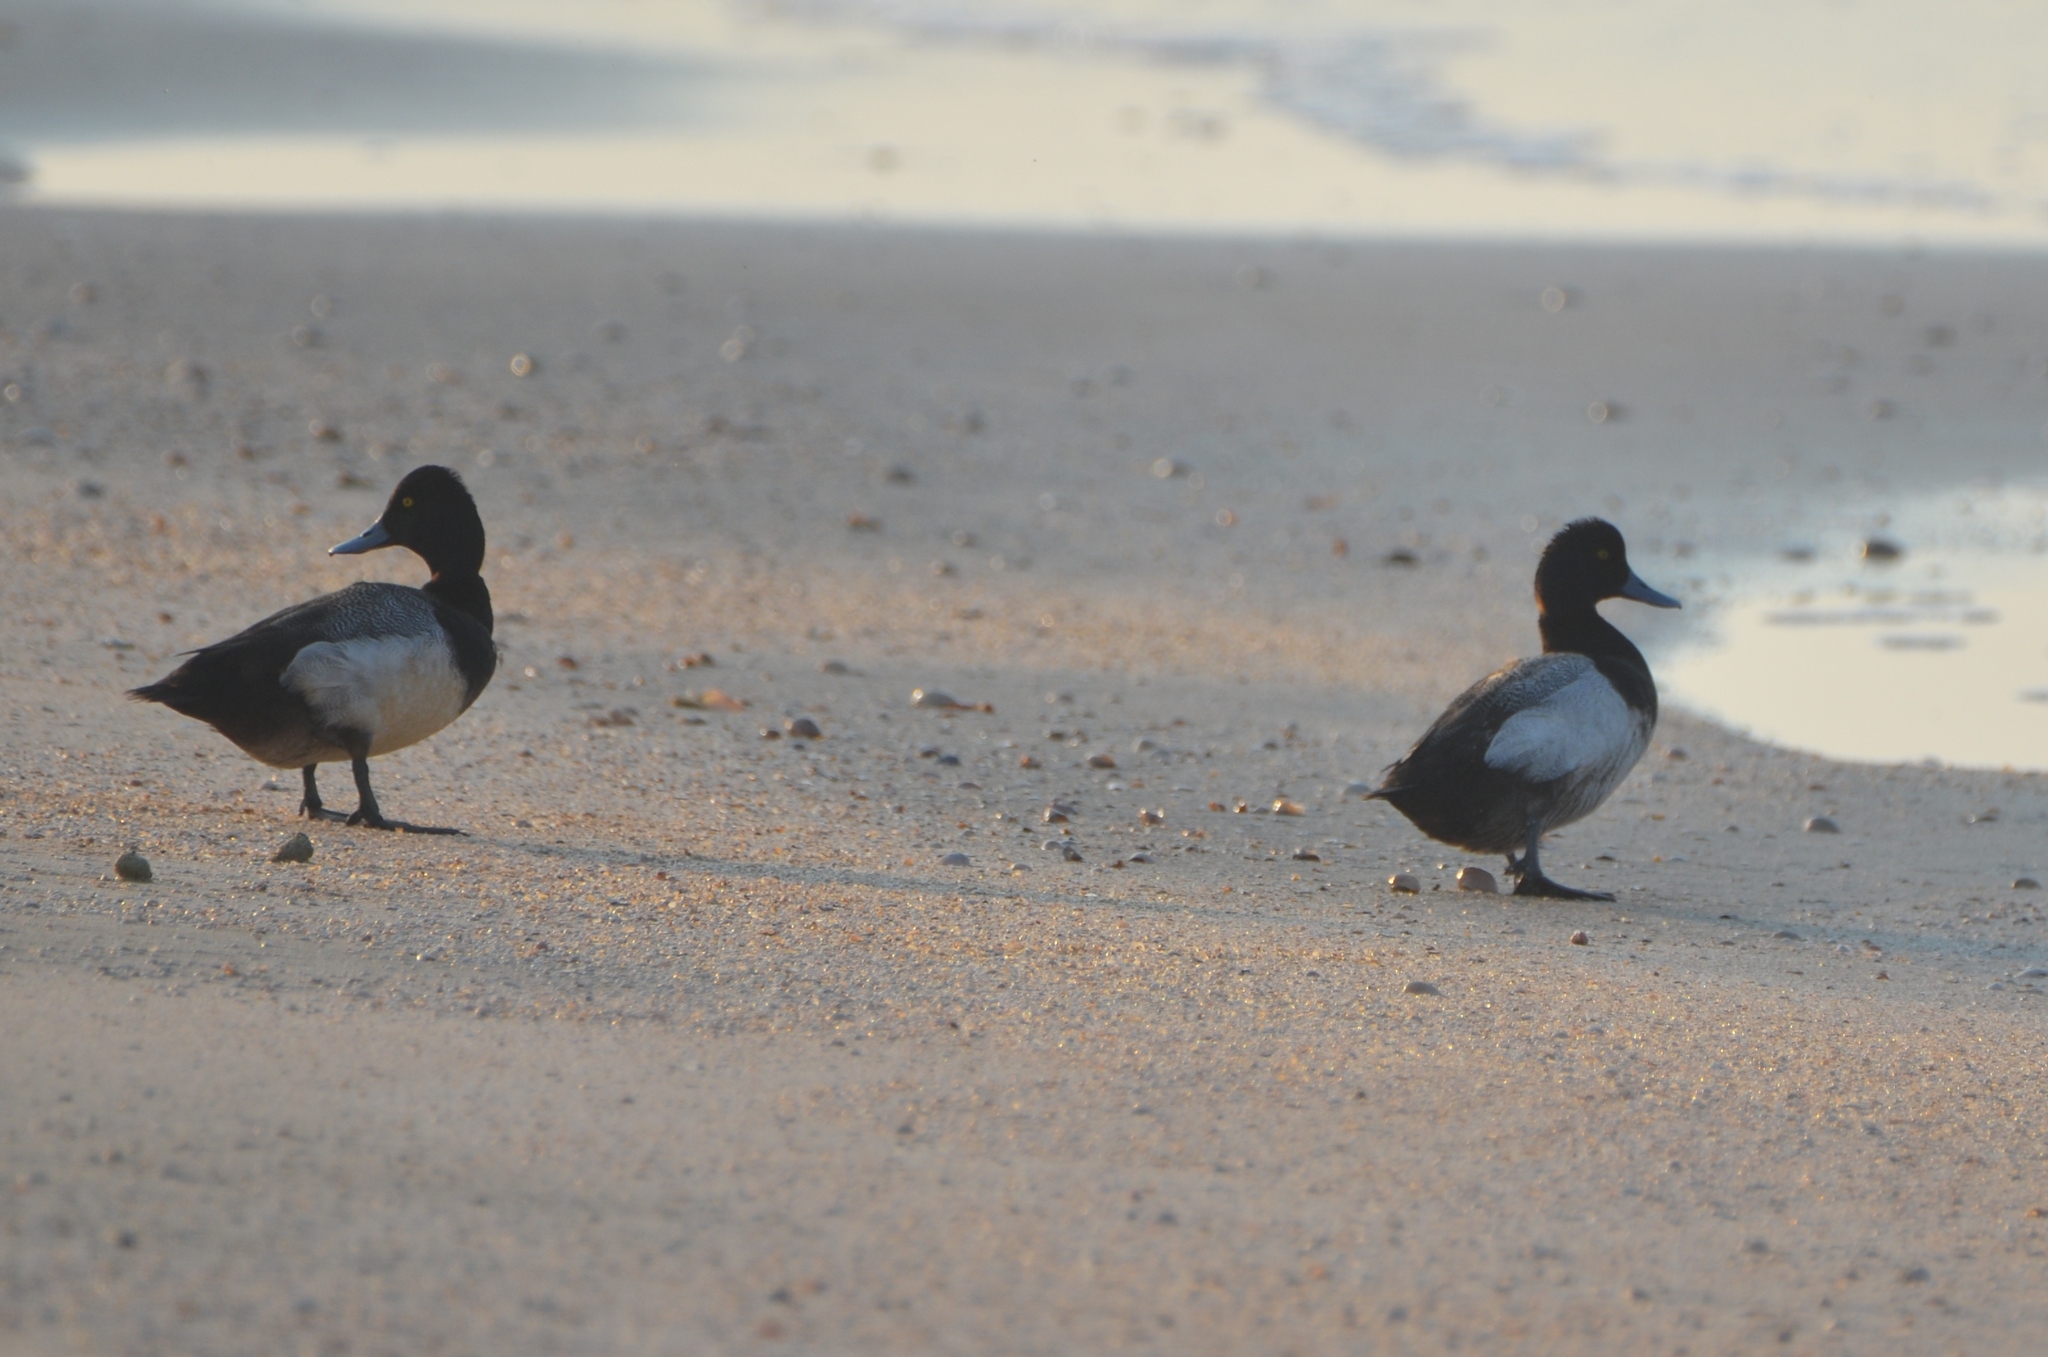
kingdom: Animalia
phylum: Chordata
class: Aves
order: Anseriformes
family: Anatidae
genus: Aythya
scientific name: Aythya affinis
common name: Lesser scaup
